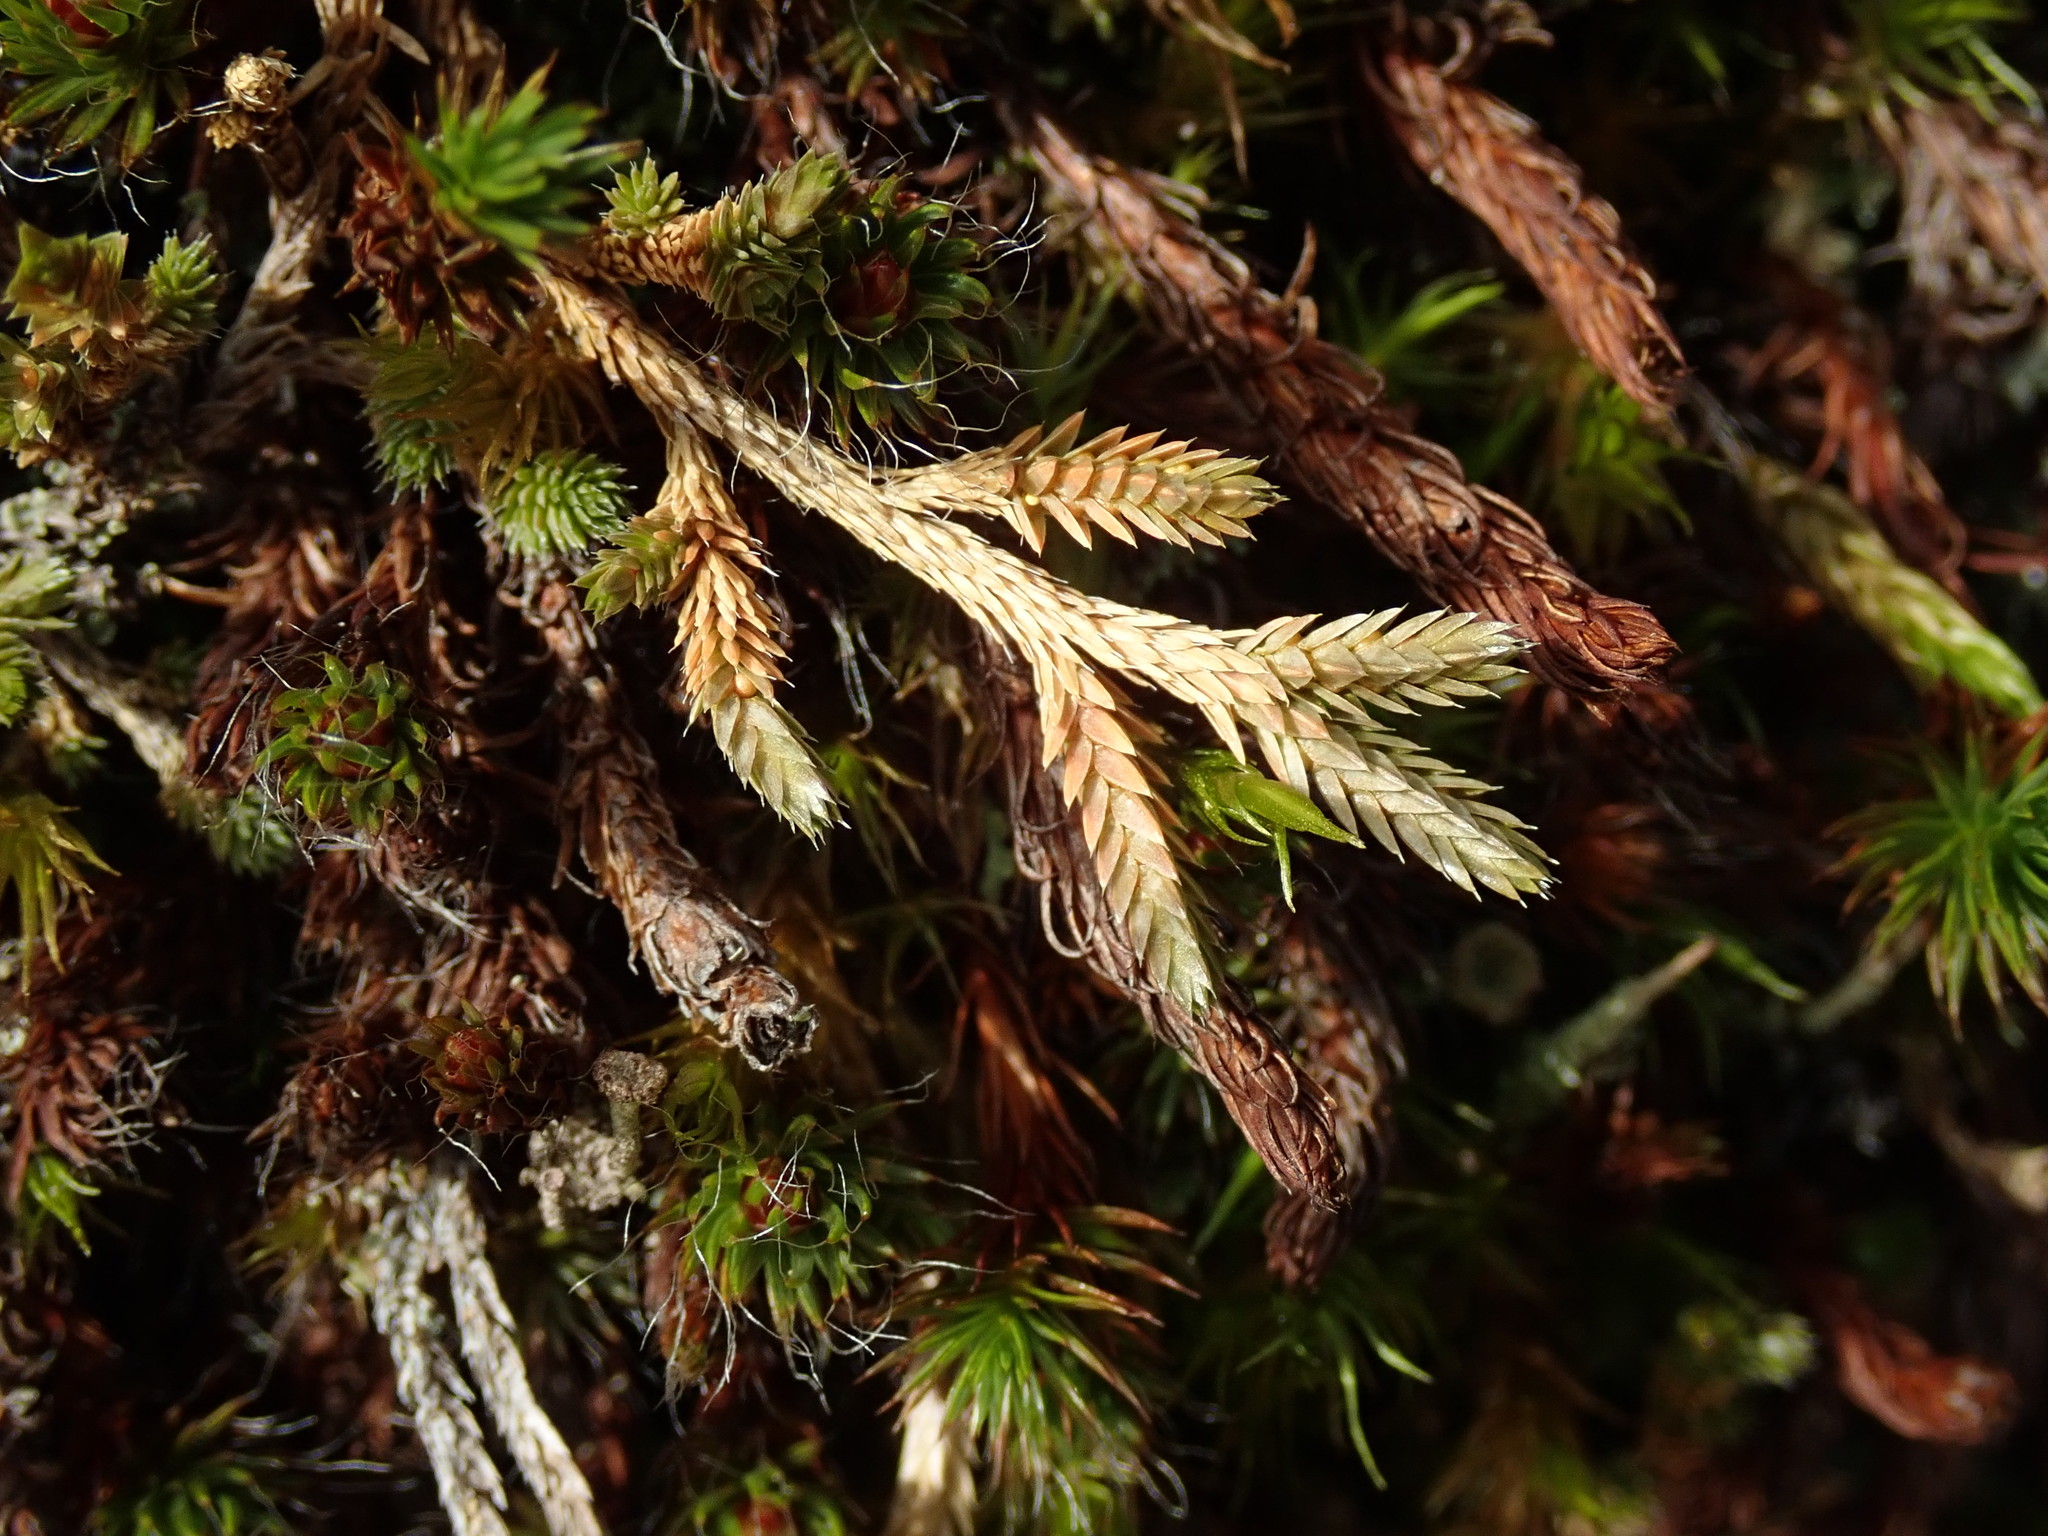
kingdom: Plantae
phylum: Tracheophyta
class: Lycopodiopsida
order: Selaginellales
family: Selaginellaceae
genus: Selaginella
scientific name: Selaginella wallacei
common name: Wallace's selaginella
